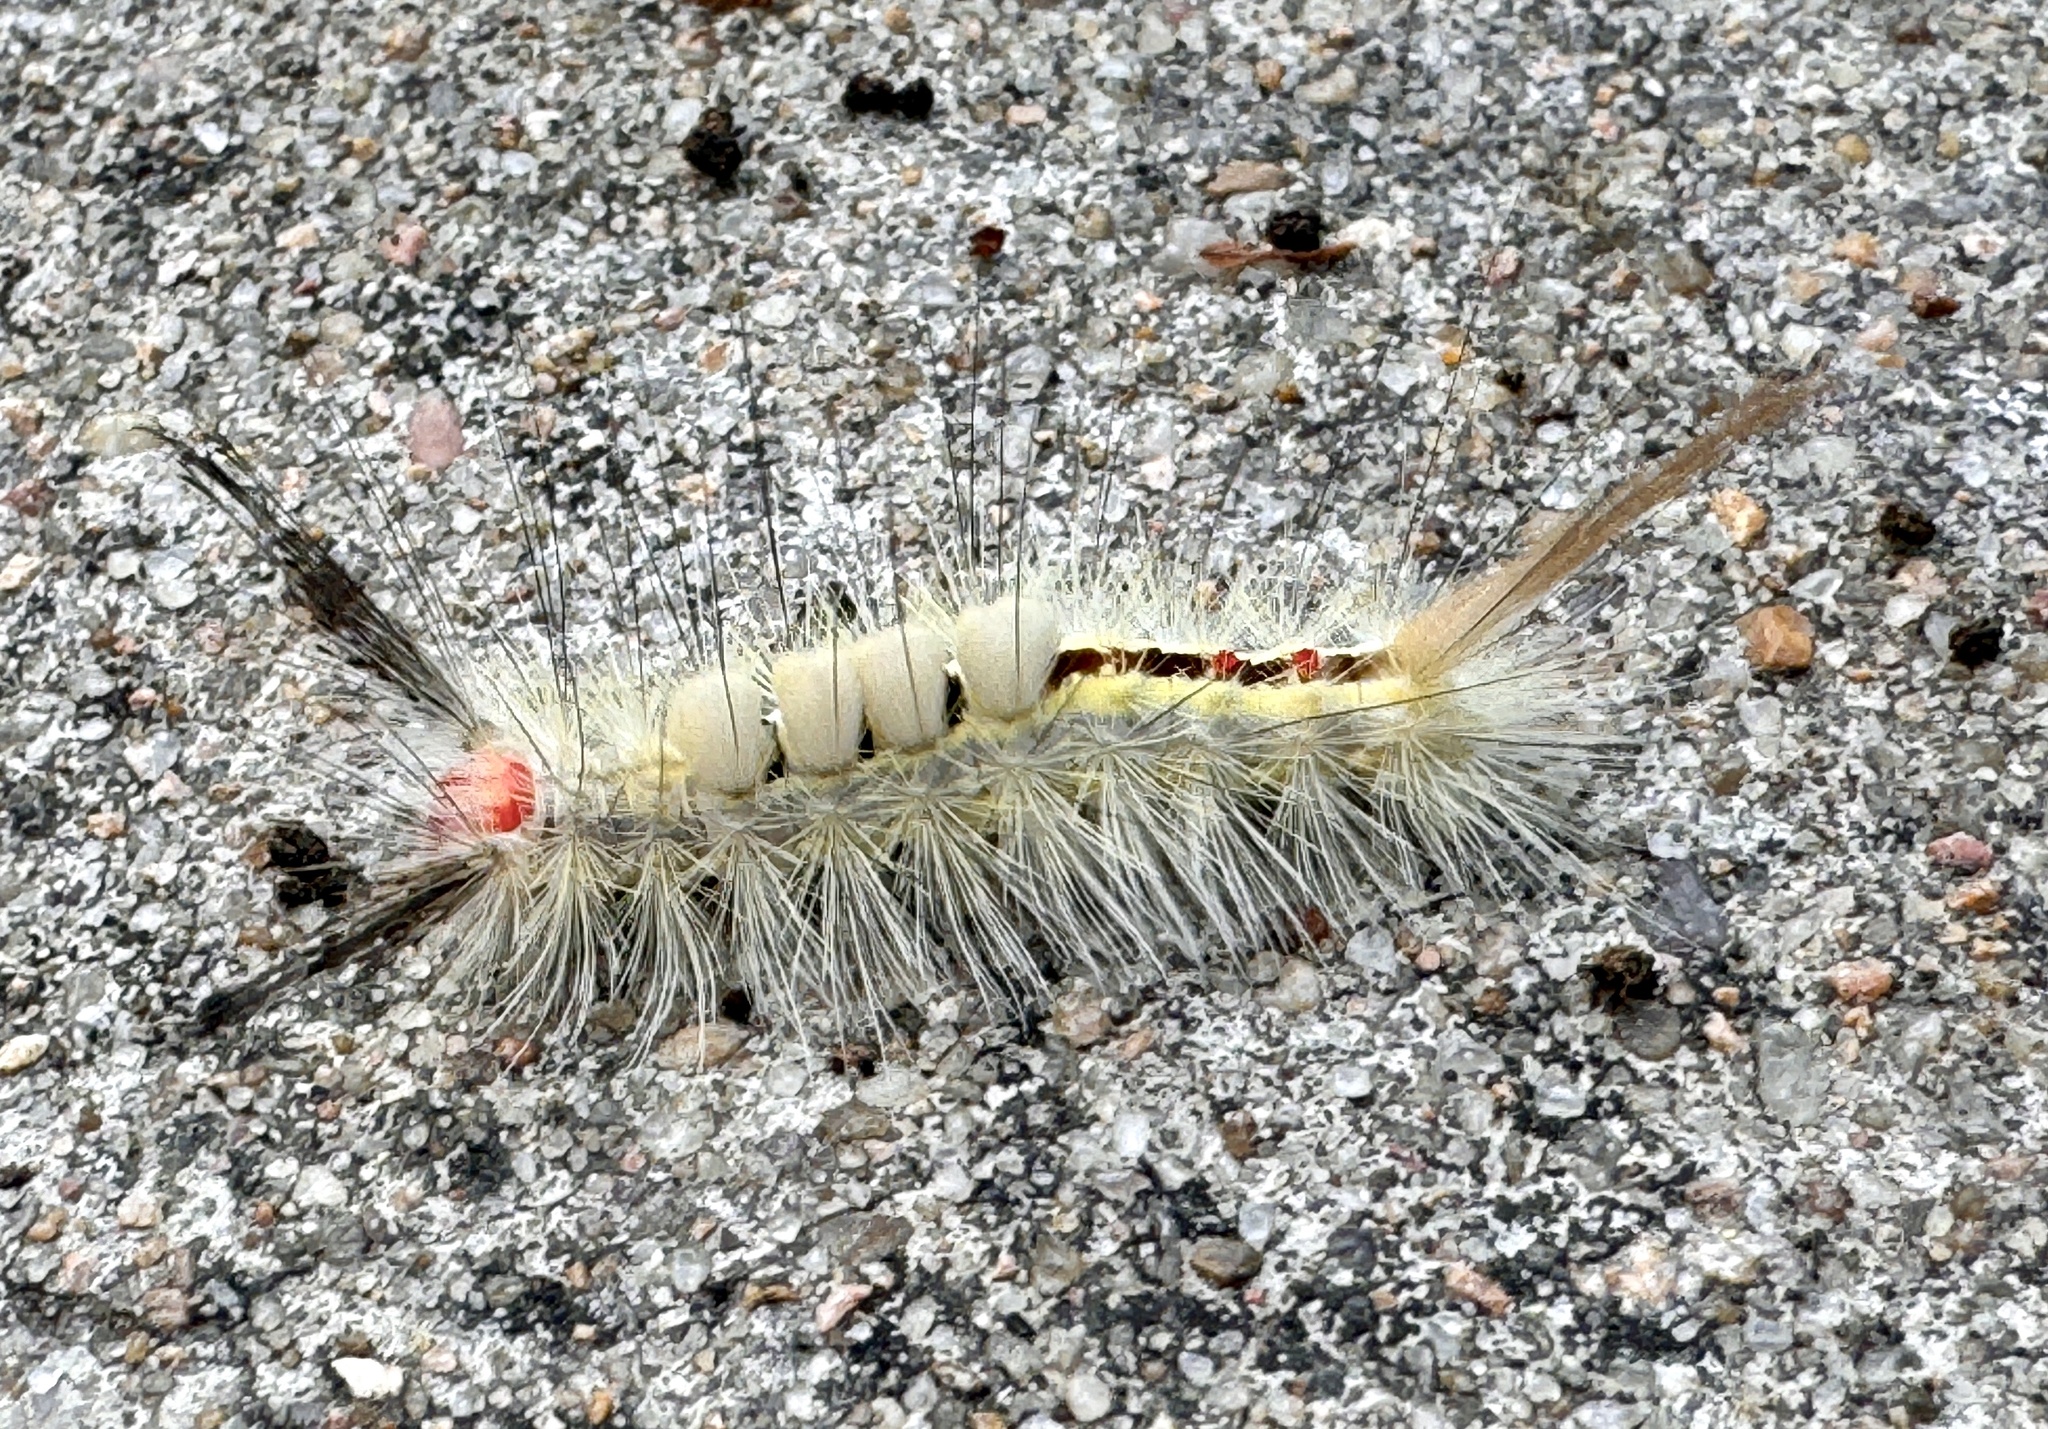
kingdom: Animalia
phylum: Arthropoda
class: Insecta
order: Lepidoptera
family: Erebidae
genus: Orgyia
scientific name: Orgyia leucostigma
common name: White-marked tussock moth
